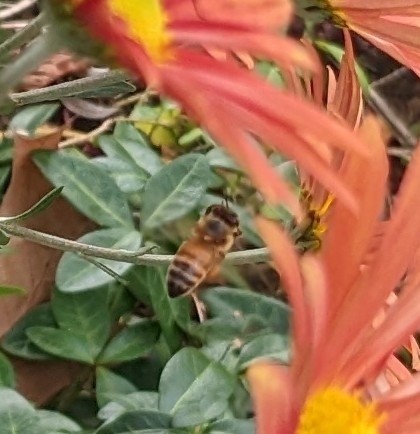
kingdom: Animalia
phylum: Arthropoda
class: Insecta
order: Hymenoptera
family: Apidae
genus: Apis
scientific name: Apis mellifera
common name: Honey bee
